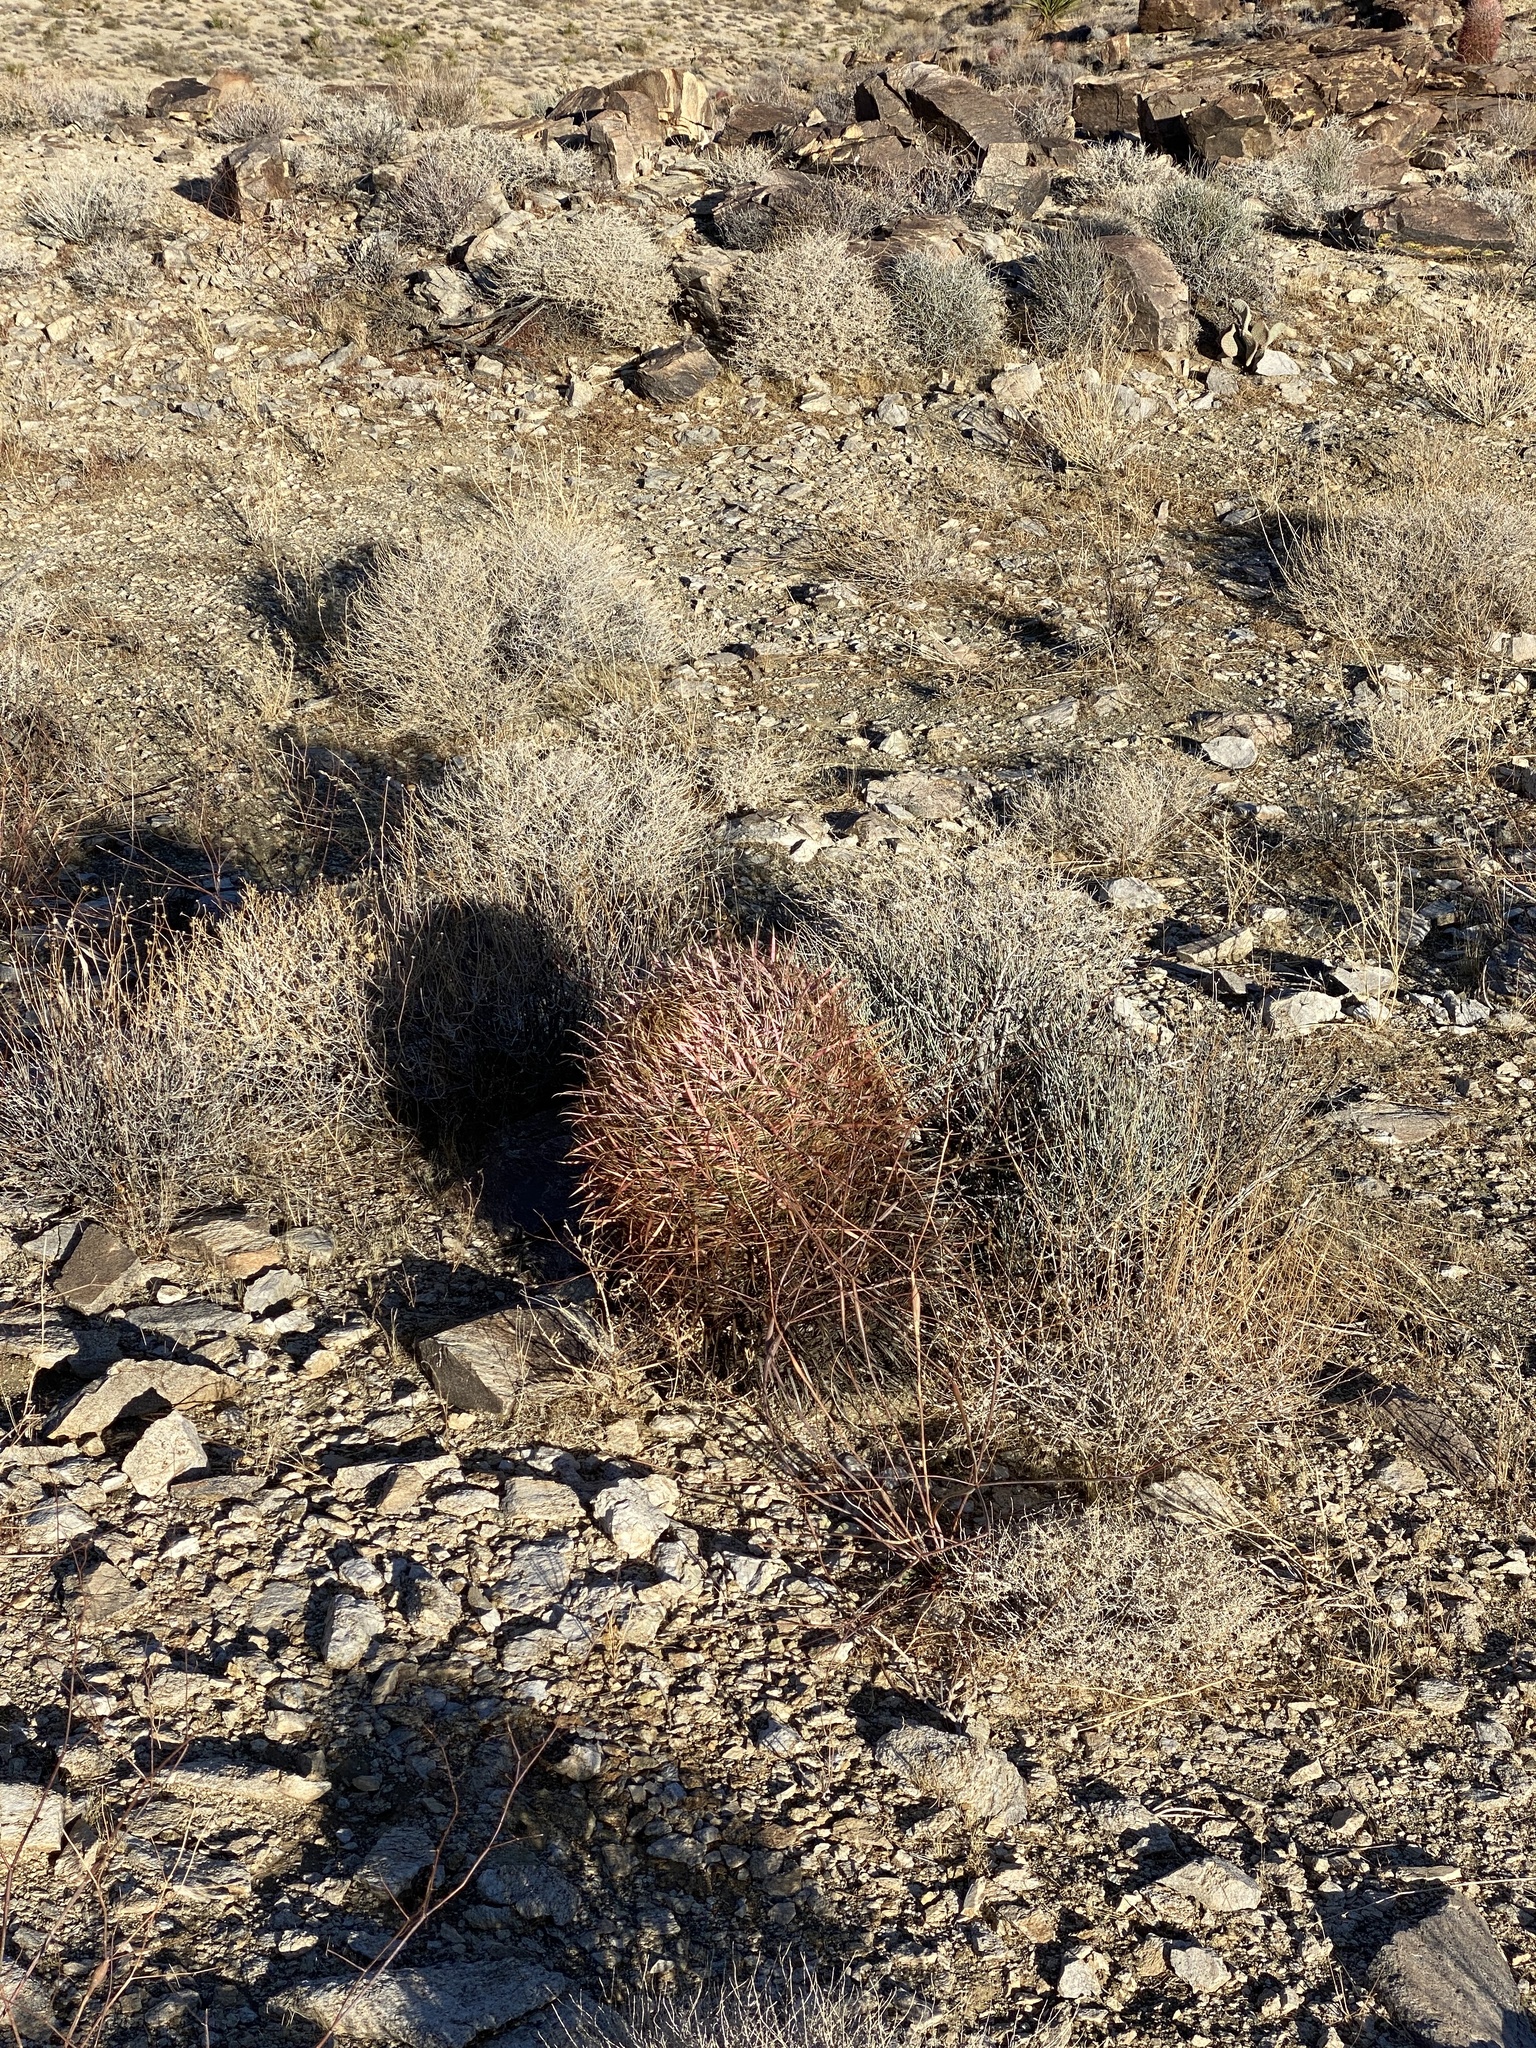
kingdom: Plantae
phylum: Tracheophyta
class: Magnoliopsida
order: Caryophyllales
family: Cactaceae
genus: Ferocactus
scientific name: Ferocactus cylindraceus
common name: California barrel cactus
